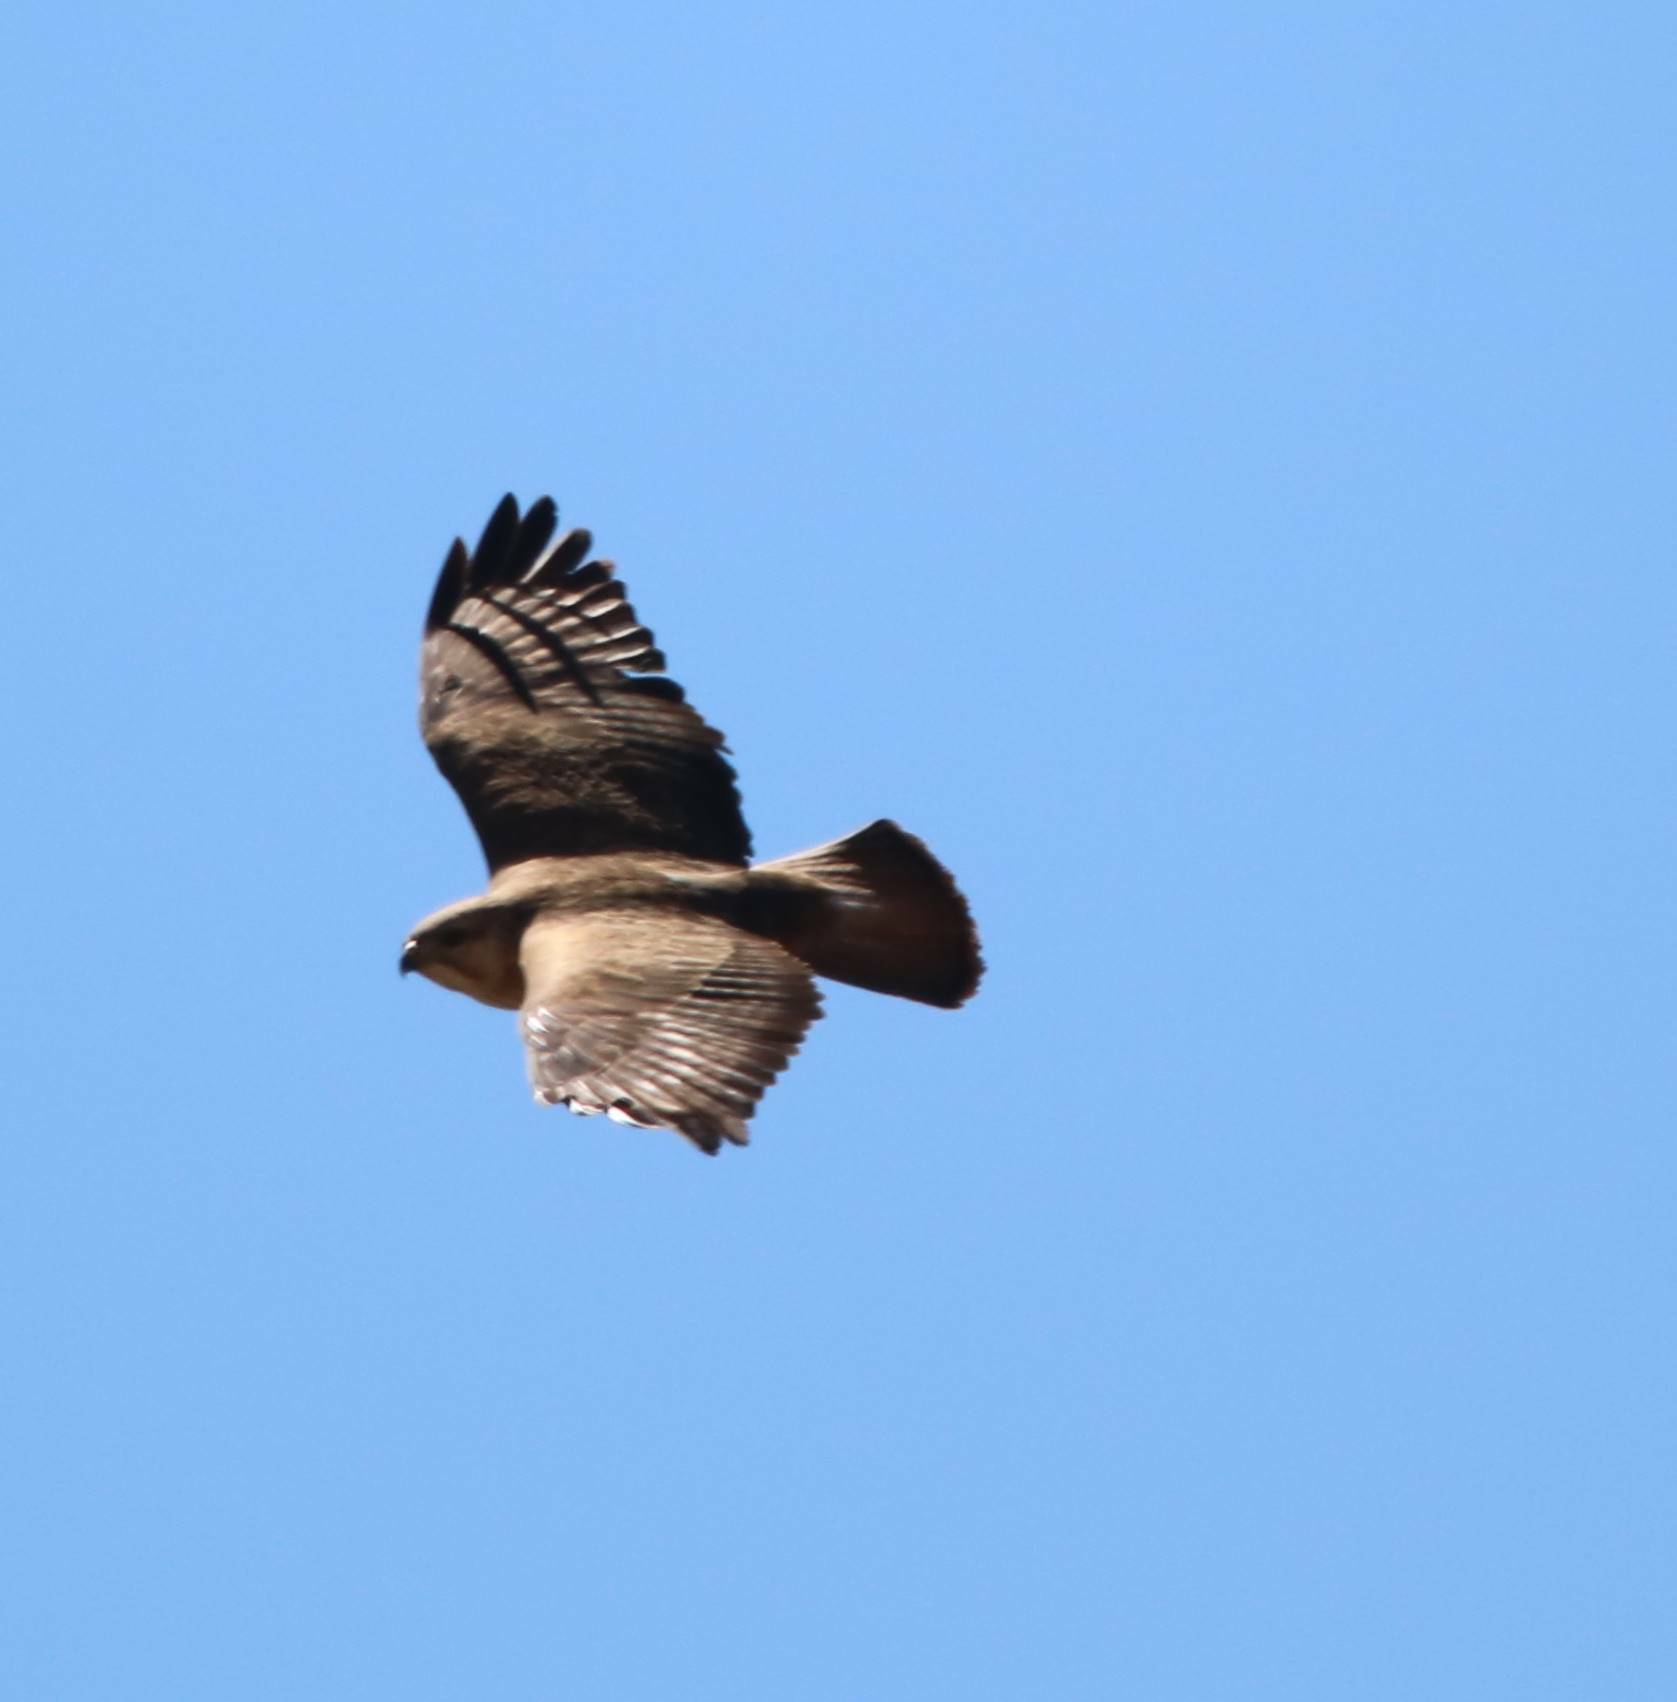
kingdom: Animalia
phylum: Chordata
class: Aves
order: Accipitriformes
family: Accipitridae
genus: Buteo
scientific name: Buteo buteo
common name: Common buzzard
